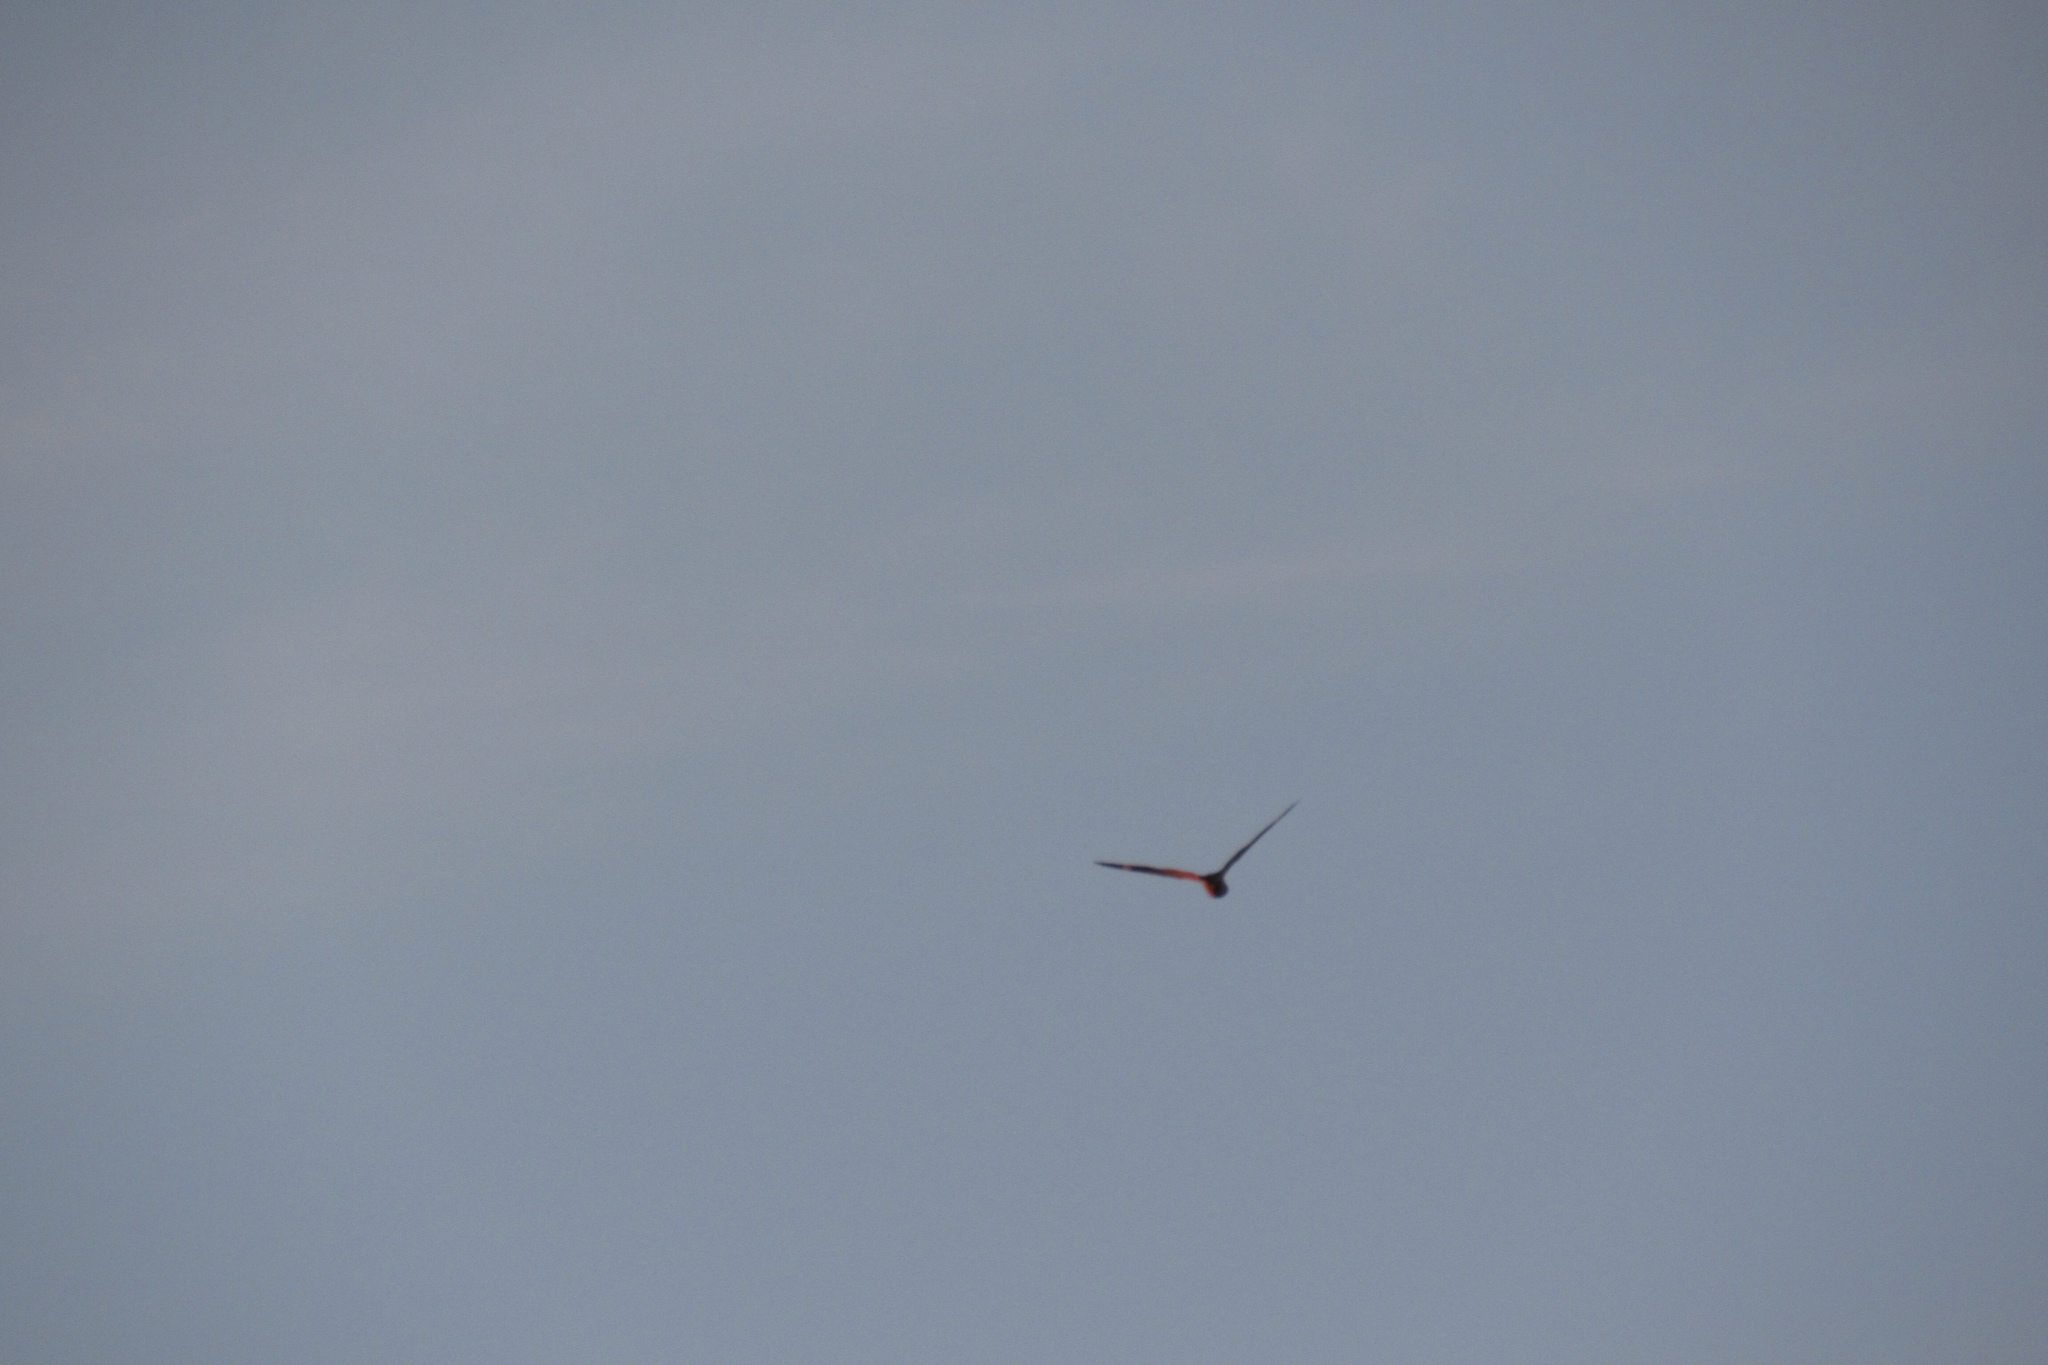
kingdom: Animalia
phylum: Chordata
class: Aves
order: Caprimulgiformes
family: Caprimulgidae
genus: Chordeiles
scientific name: Chordeiles acutipennis
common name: Lesser nighthawk
